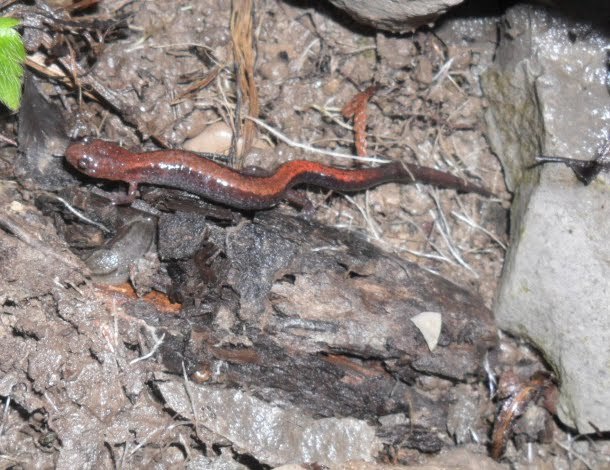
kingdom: Animalia
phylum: Chordata
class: Amphibia
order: Caudata
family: Plethodontidae
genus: Plethodon
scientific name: Plethodon cinereus
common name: Redback salamander
